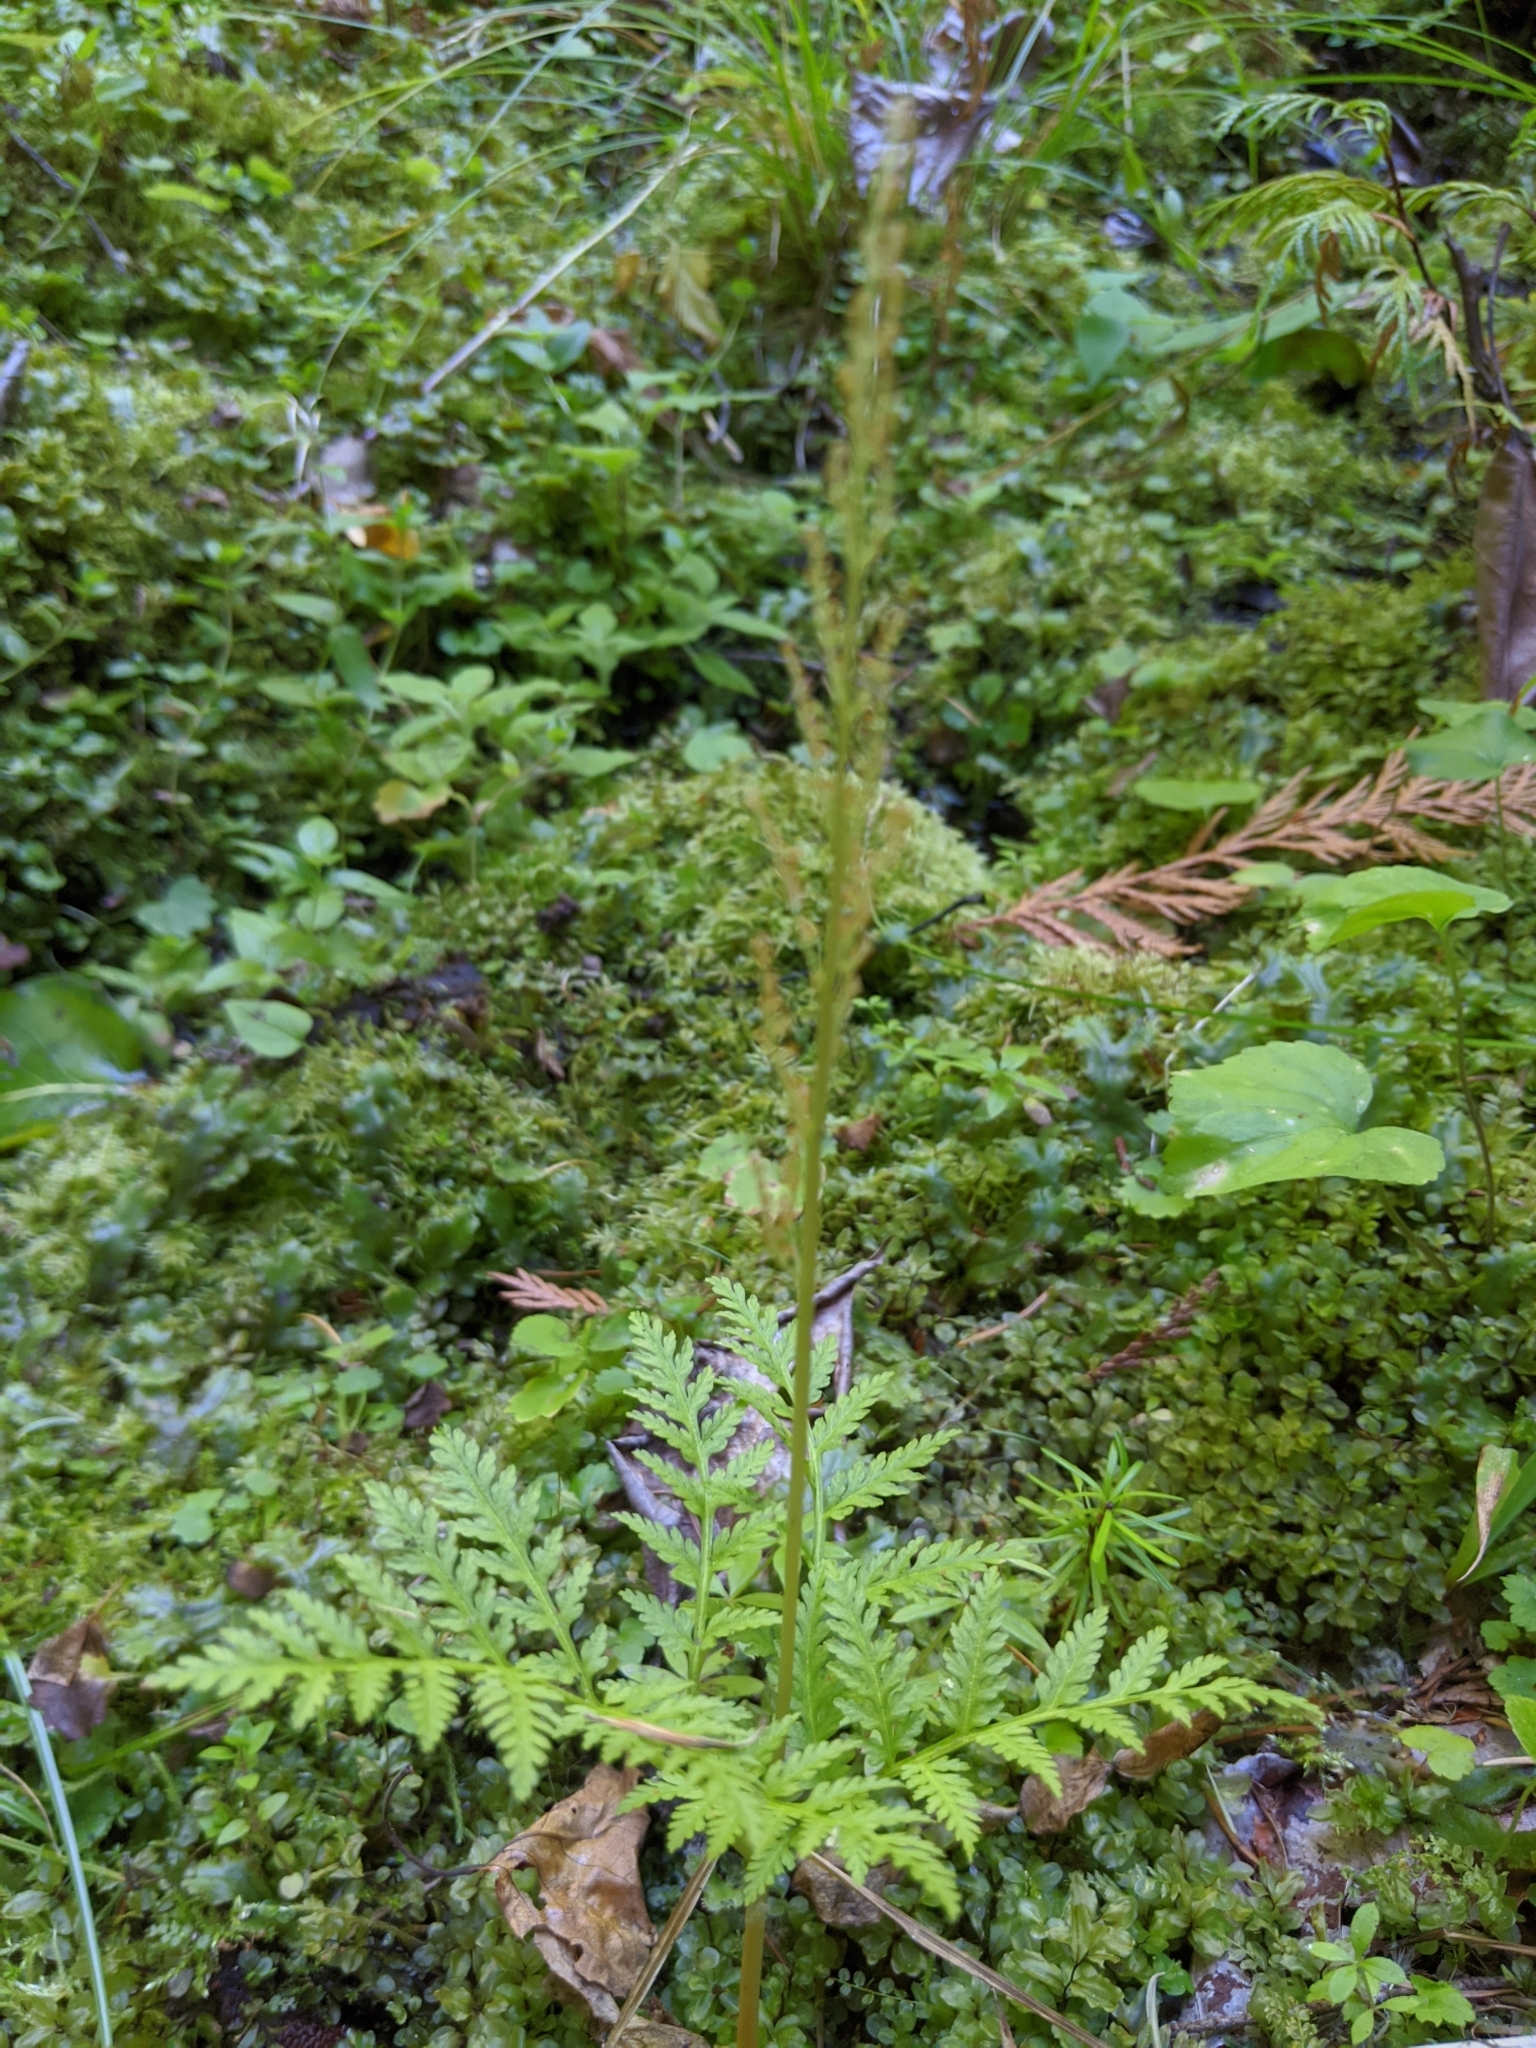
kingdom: Plantae
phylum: Tracheophyta
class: Polypodiopsida
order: Ophioglossales
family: Ophioglossaceae
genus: Botrypus
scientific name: Botrypus virginianus
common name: Common grapefern
